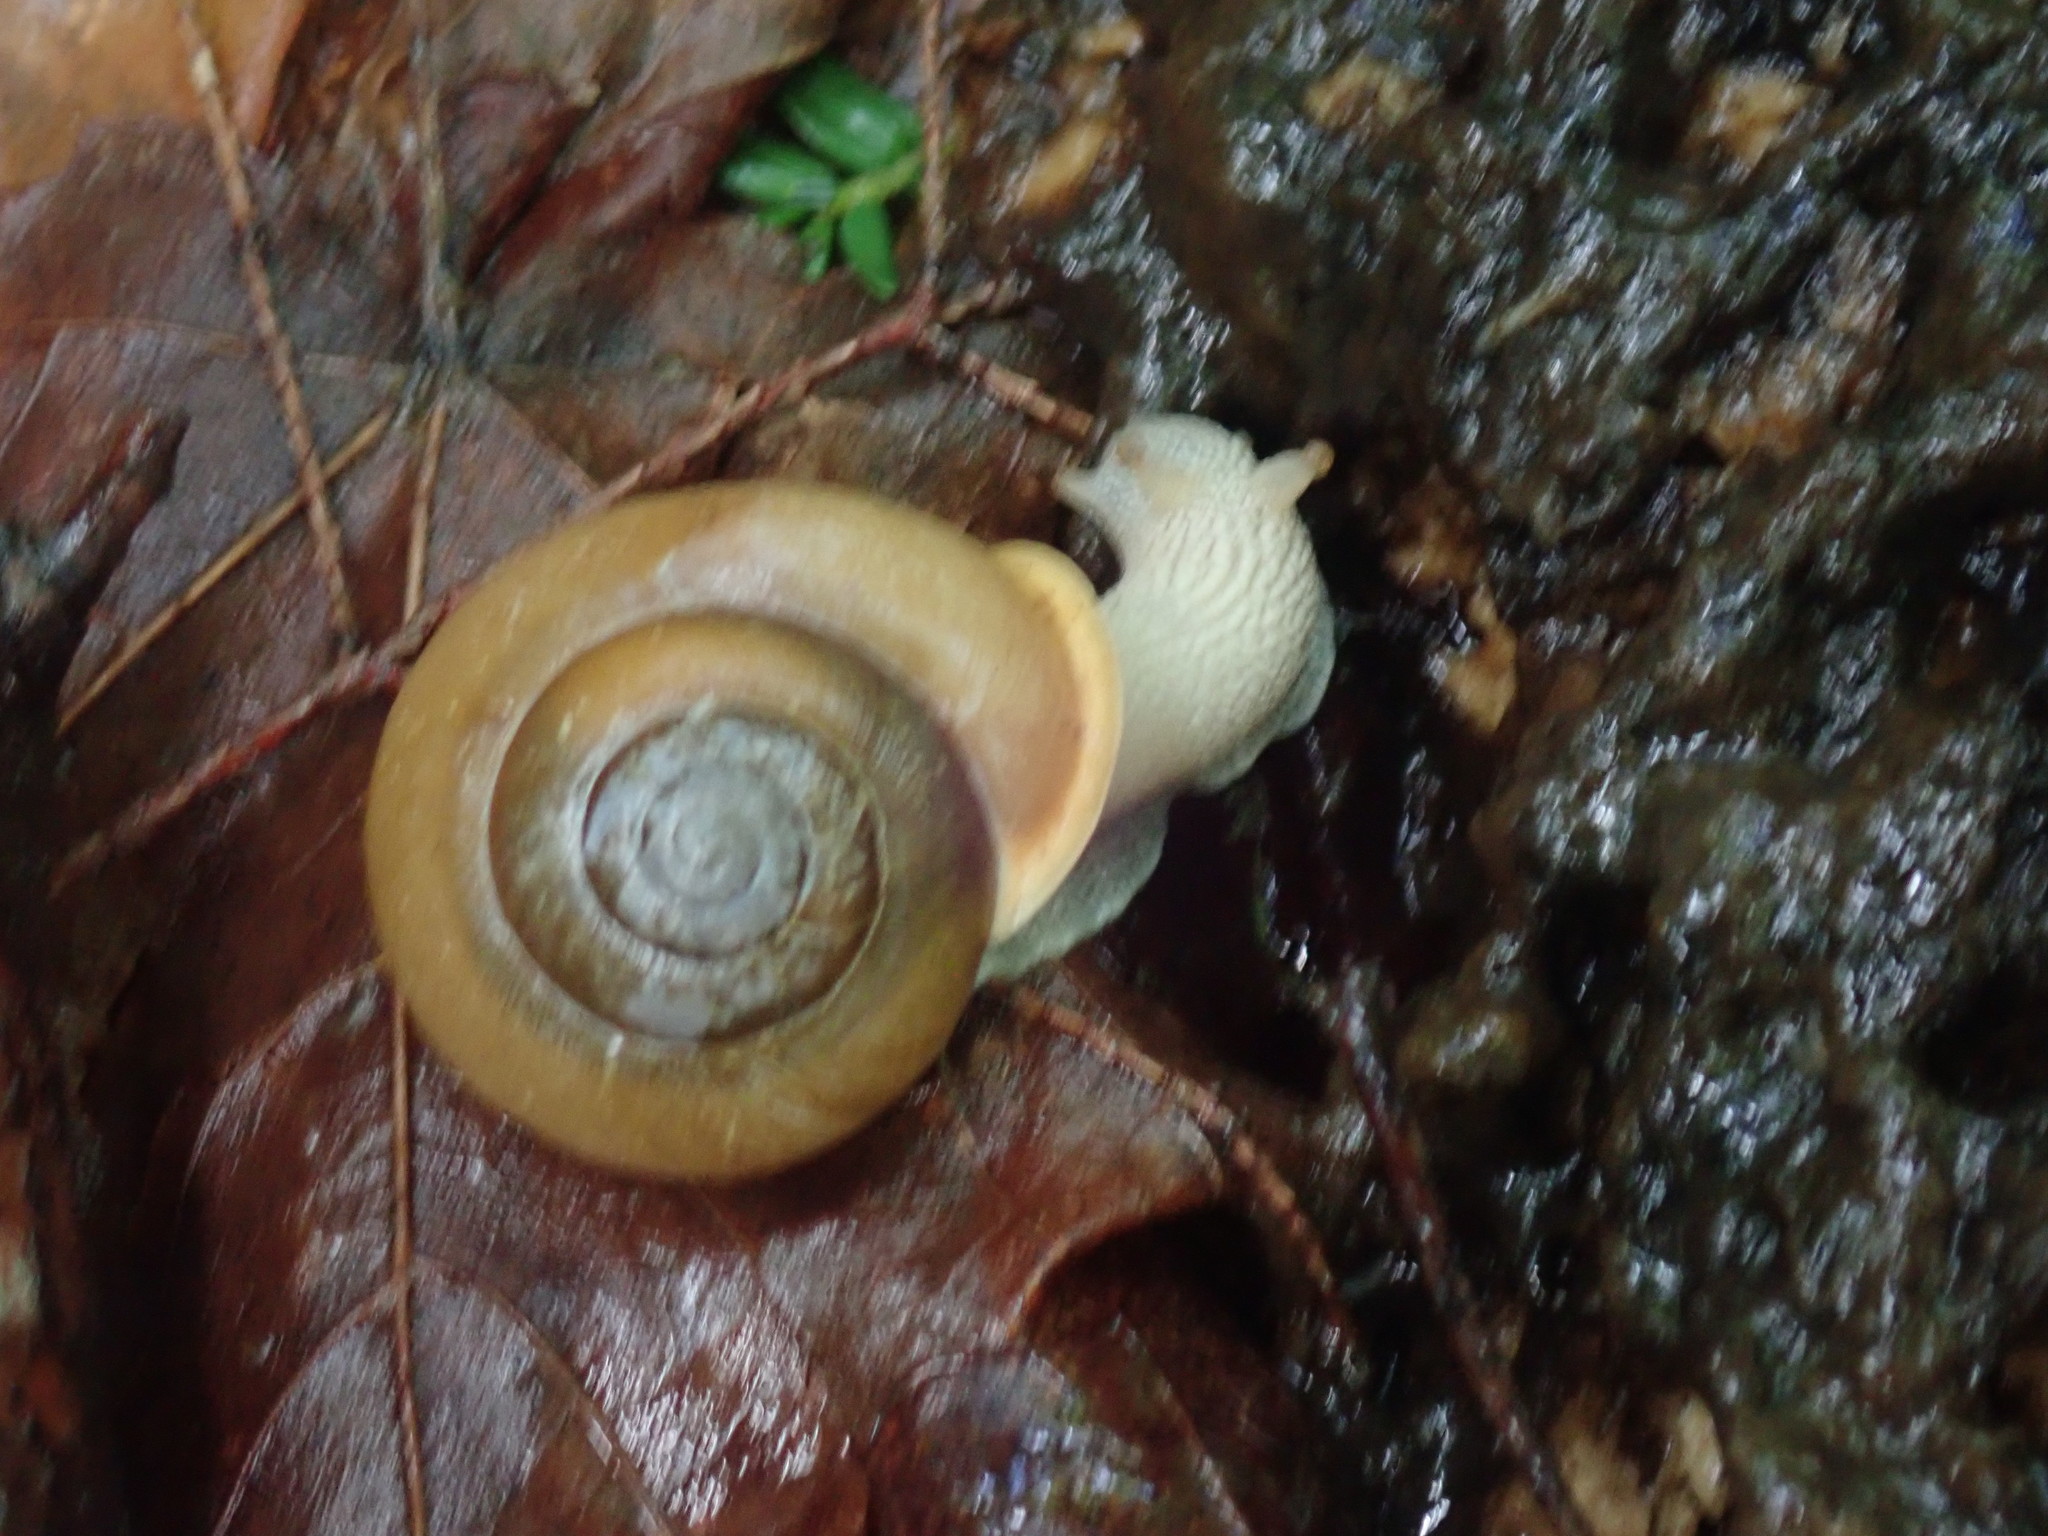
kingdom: Animalia
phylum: Mollusca
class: Gastropoda
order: Stylommatophora
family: Polygyridae
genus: Neohelix
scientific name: Neohelix albolabris
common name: Eastern whitelip
